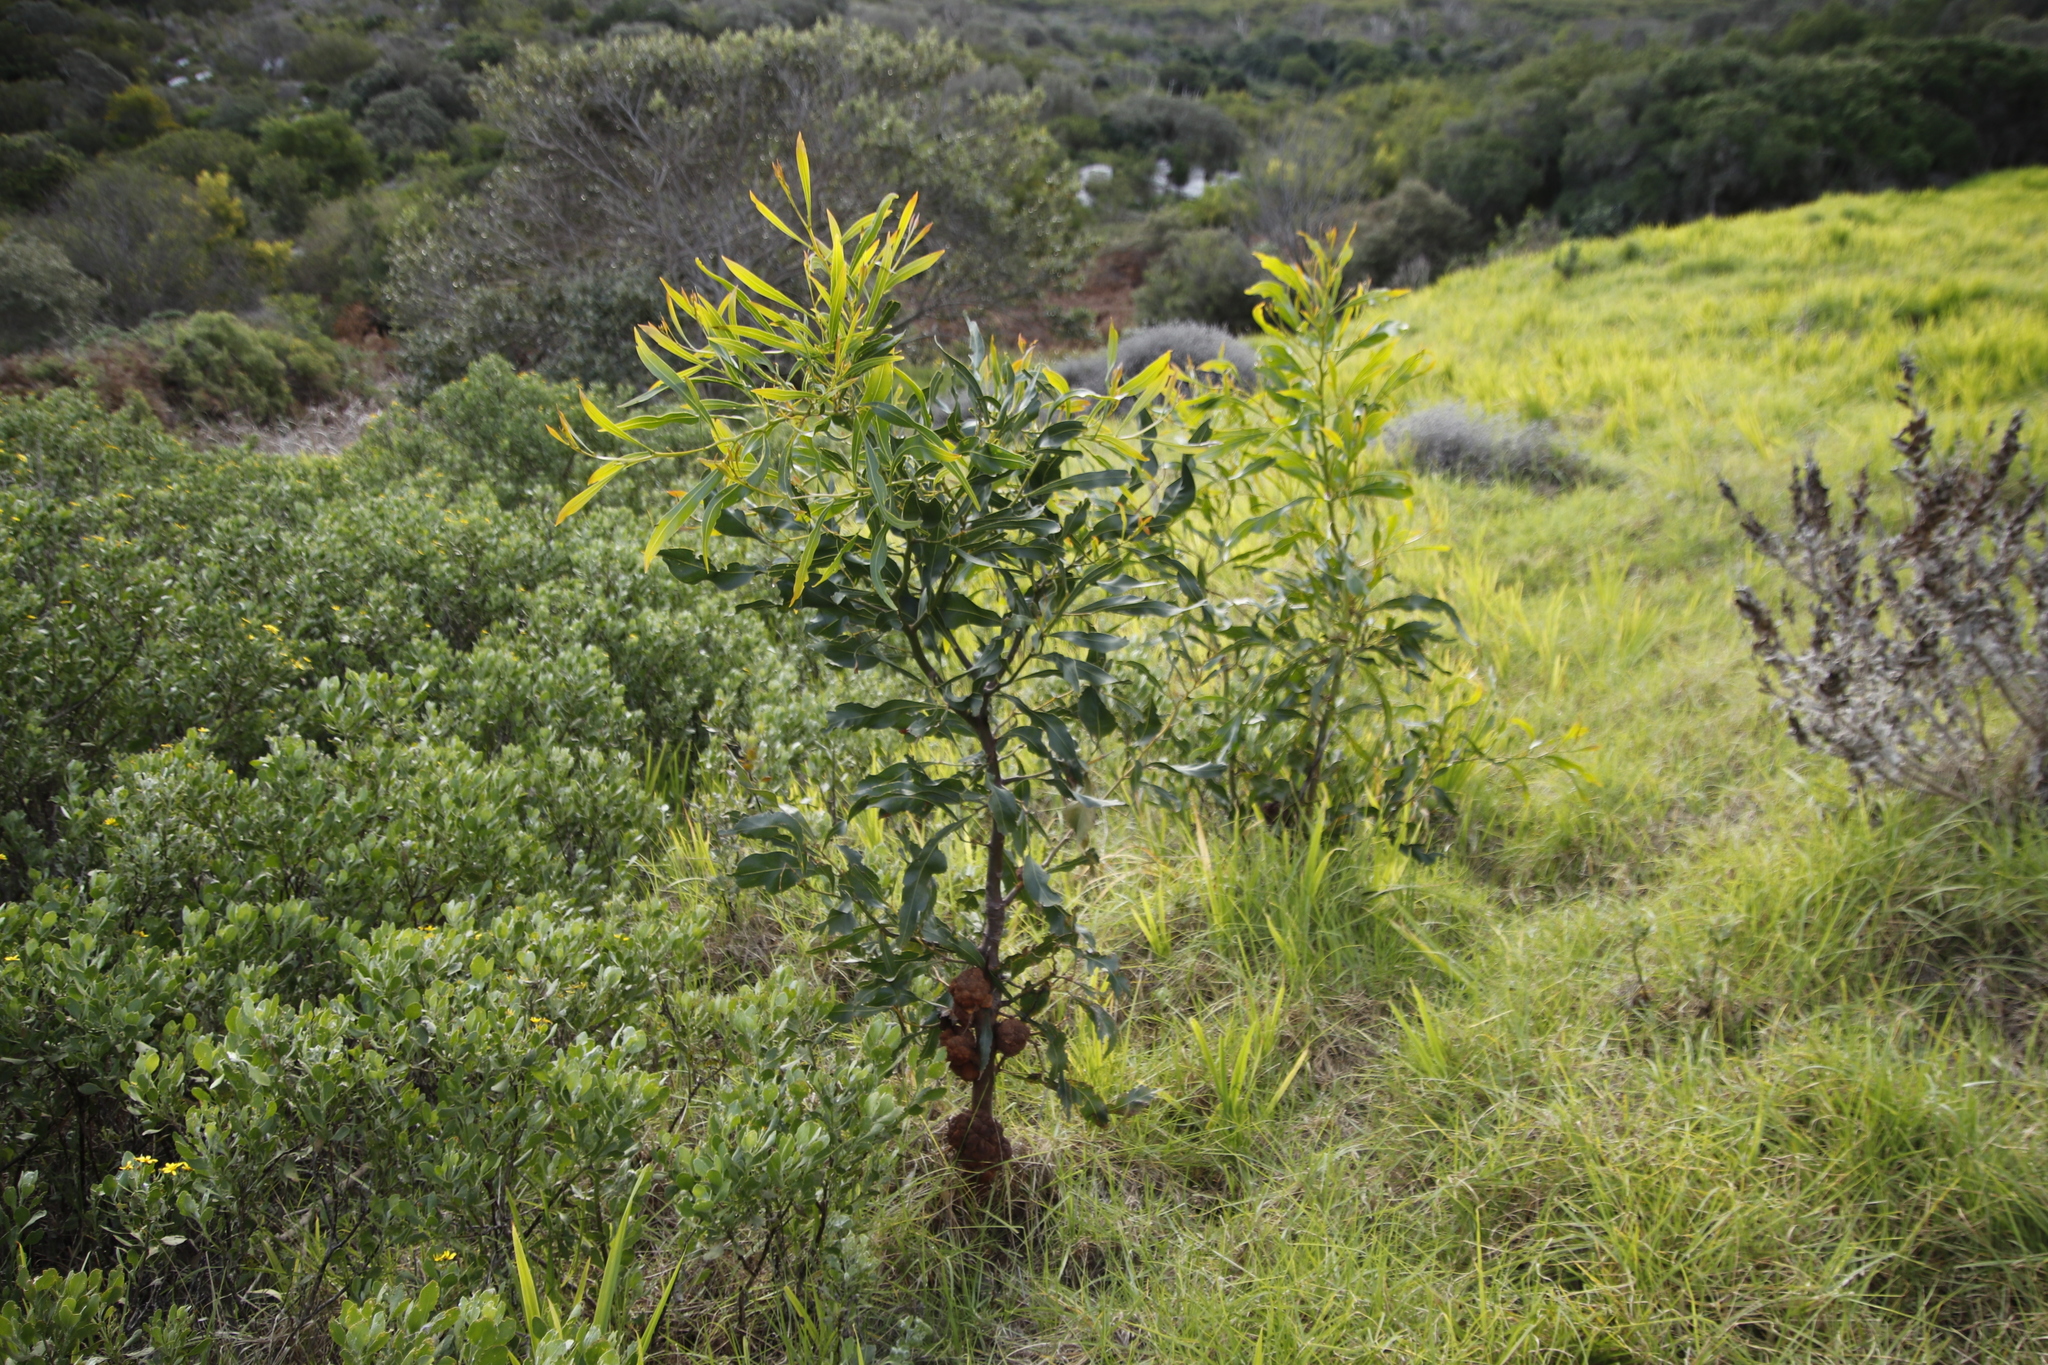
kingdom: Plantae
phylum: Tracheophyta
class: Magnoliopsida
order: Fabales
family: Fabaceae
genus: Acacia
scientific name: Acacia saligna
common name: Orange wattle
